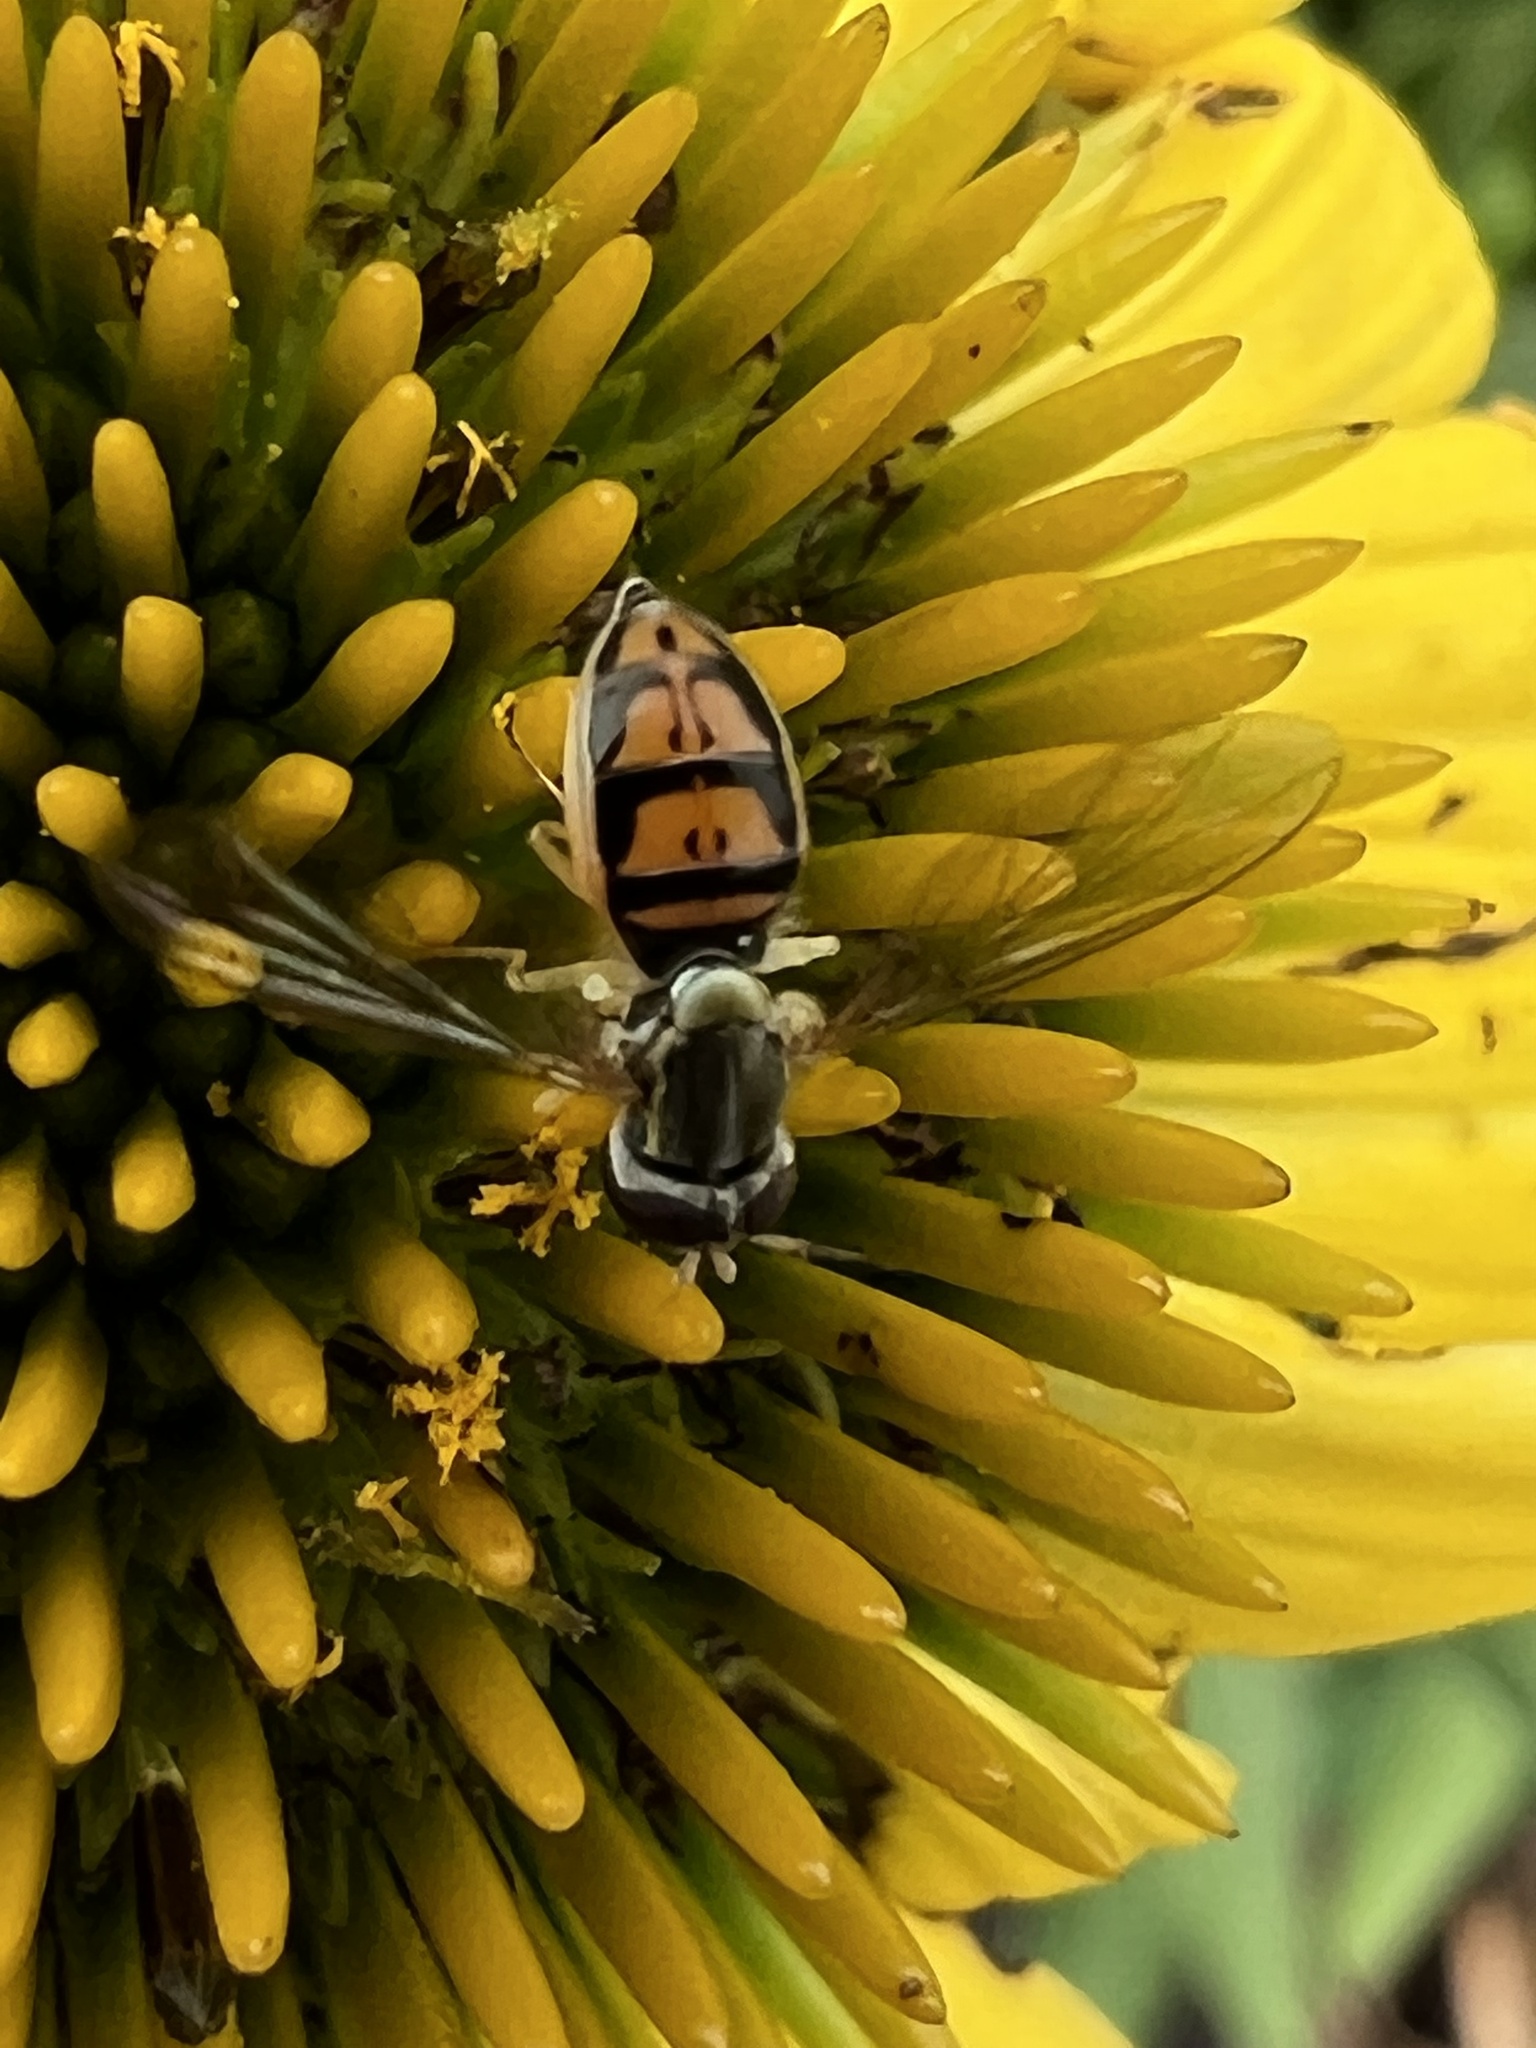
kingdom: Animalia
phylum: Arthropoda
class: Insecta
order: Diptera
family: Syrphidae
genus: Toxomerus
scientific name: Toxomerus marginatus
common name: Syrphid fly
